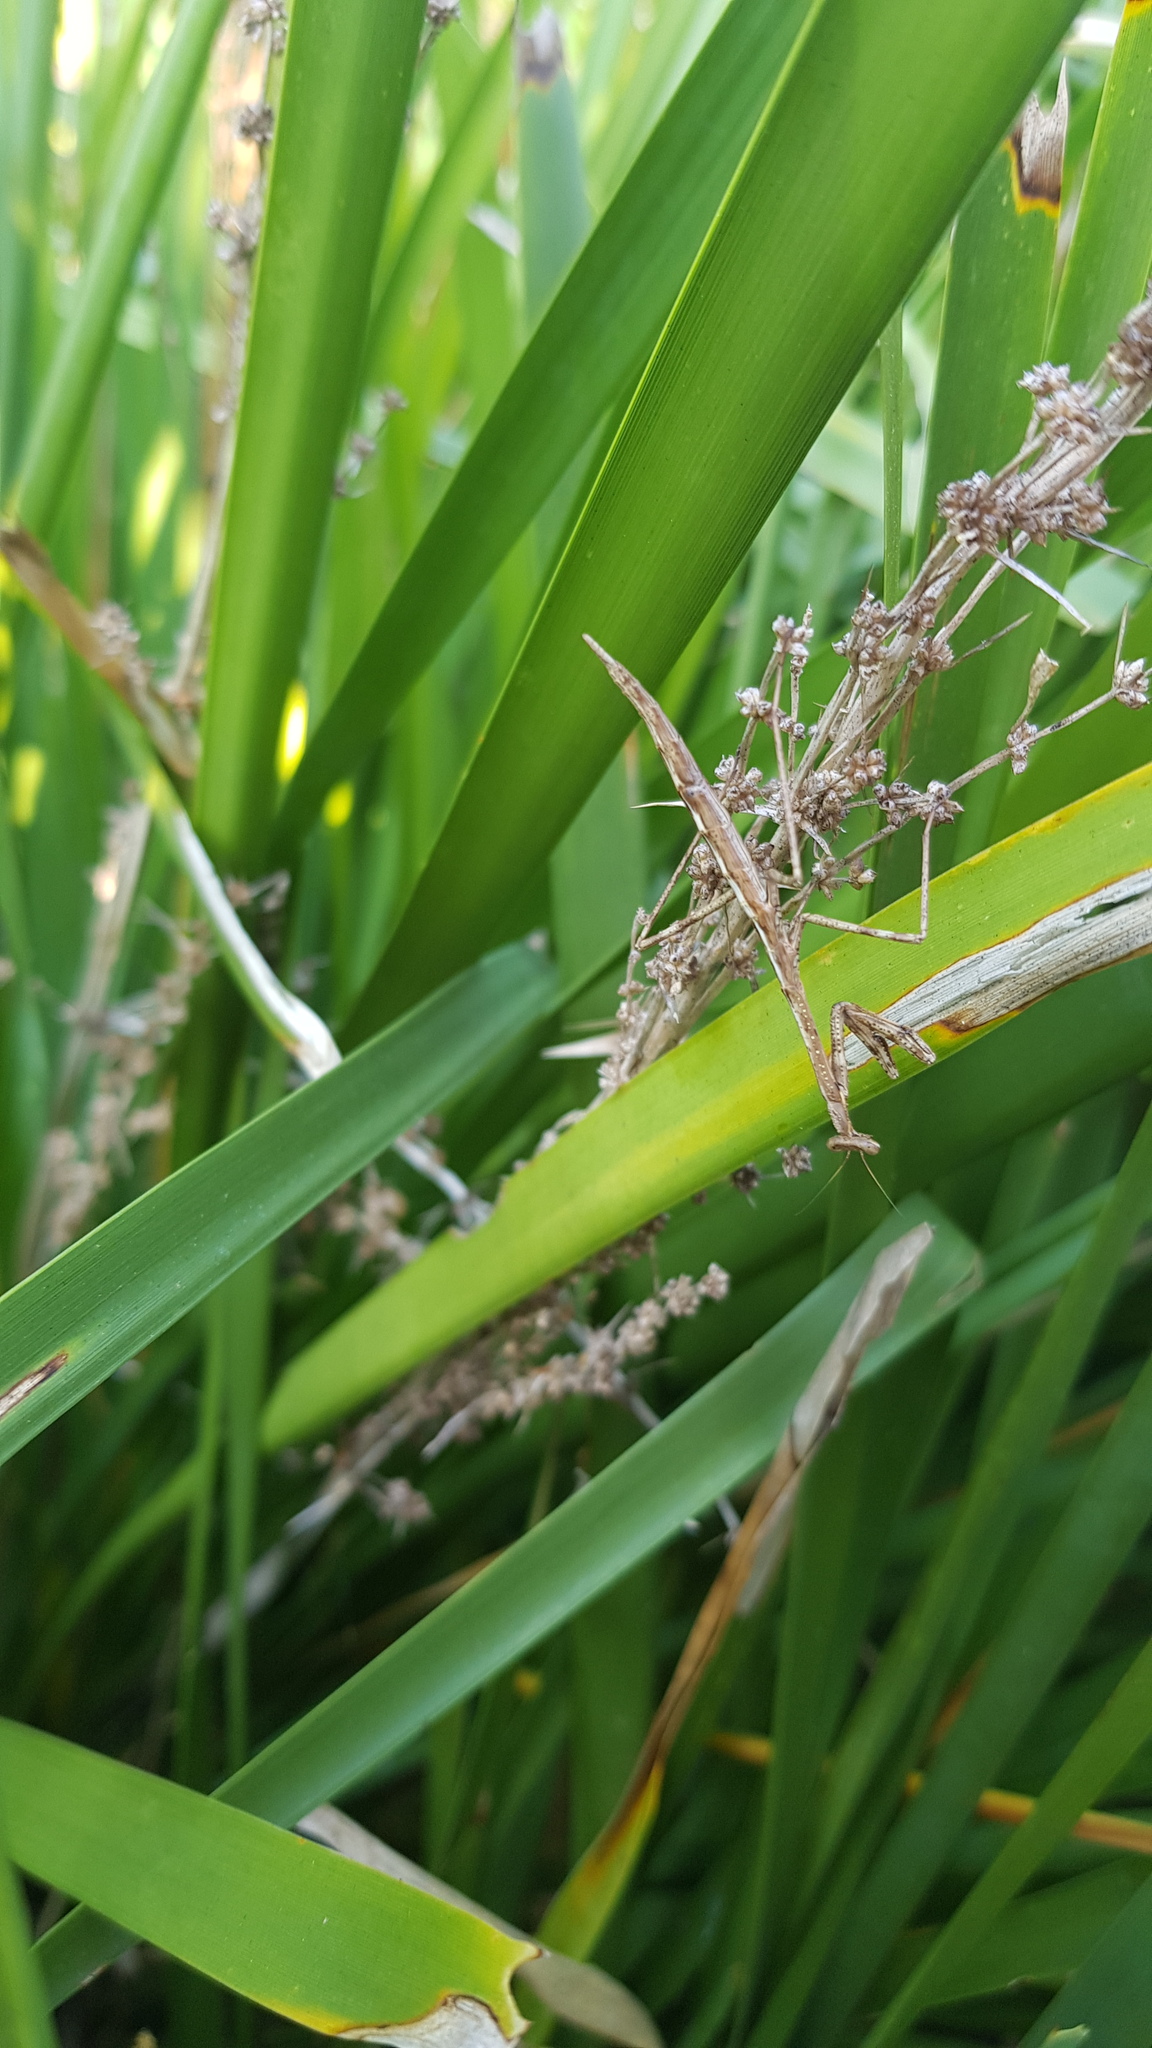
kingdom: Animalia
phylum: Arthropoda
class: Insecta
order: Mantodea
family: Mantidae
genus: Archimantis
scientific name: Archimantis latistyla
